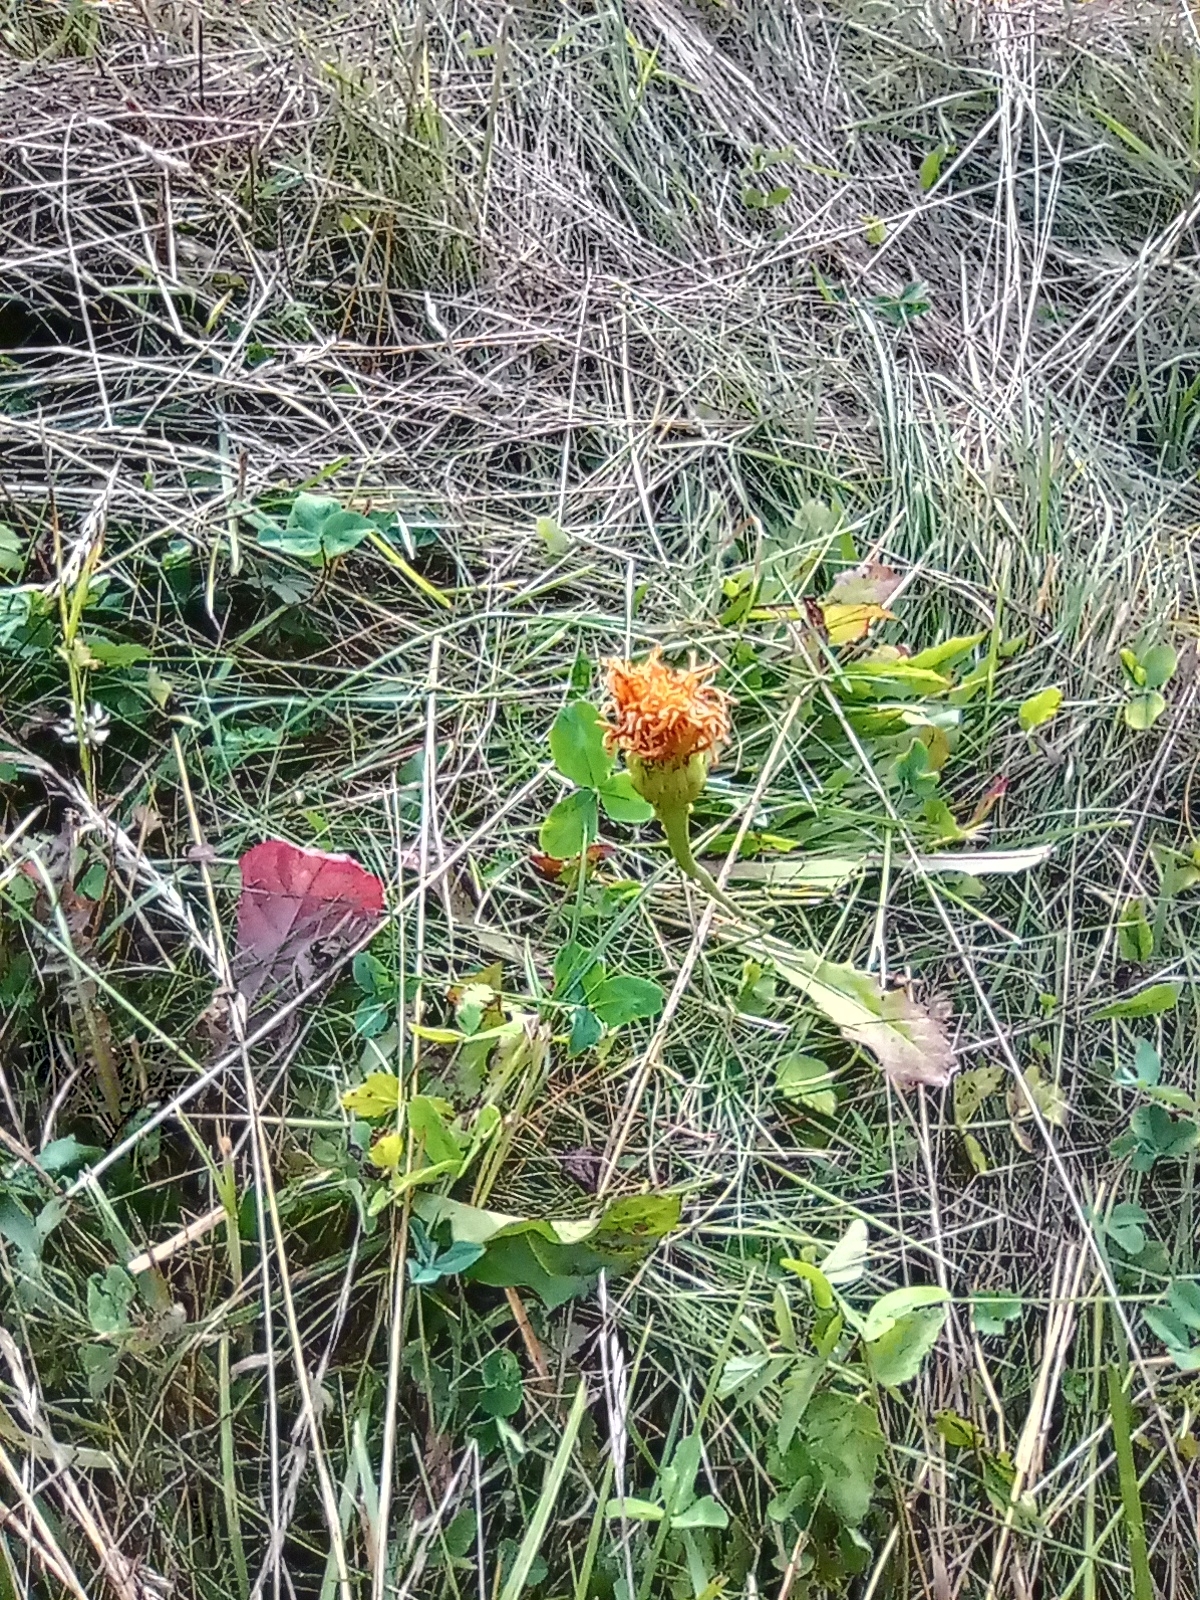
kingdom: Plantae
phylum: Tracheophyta
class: Magnoliopsida
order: Asterales
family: Asteraceae
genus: Leontodon
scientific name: Leontodon hispidus
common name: Rough hawkbit
